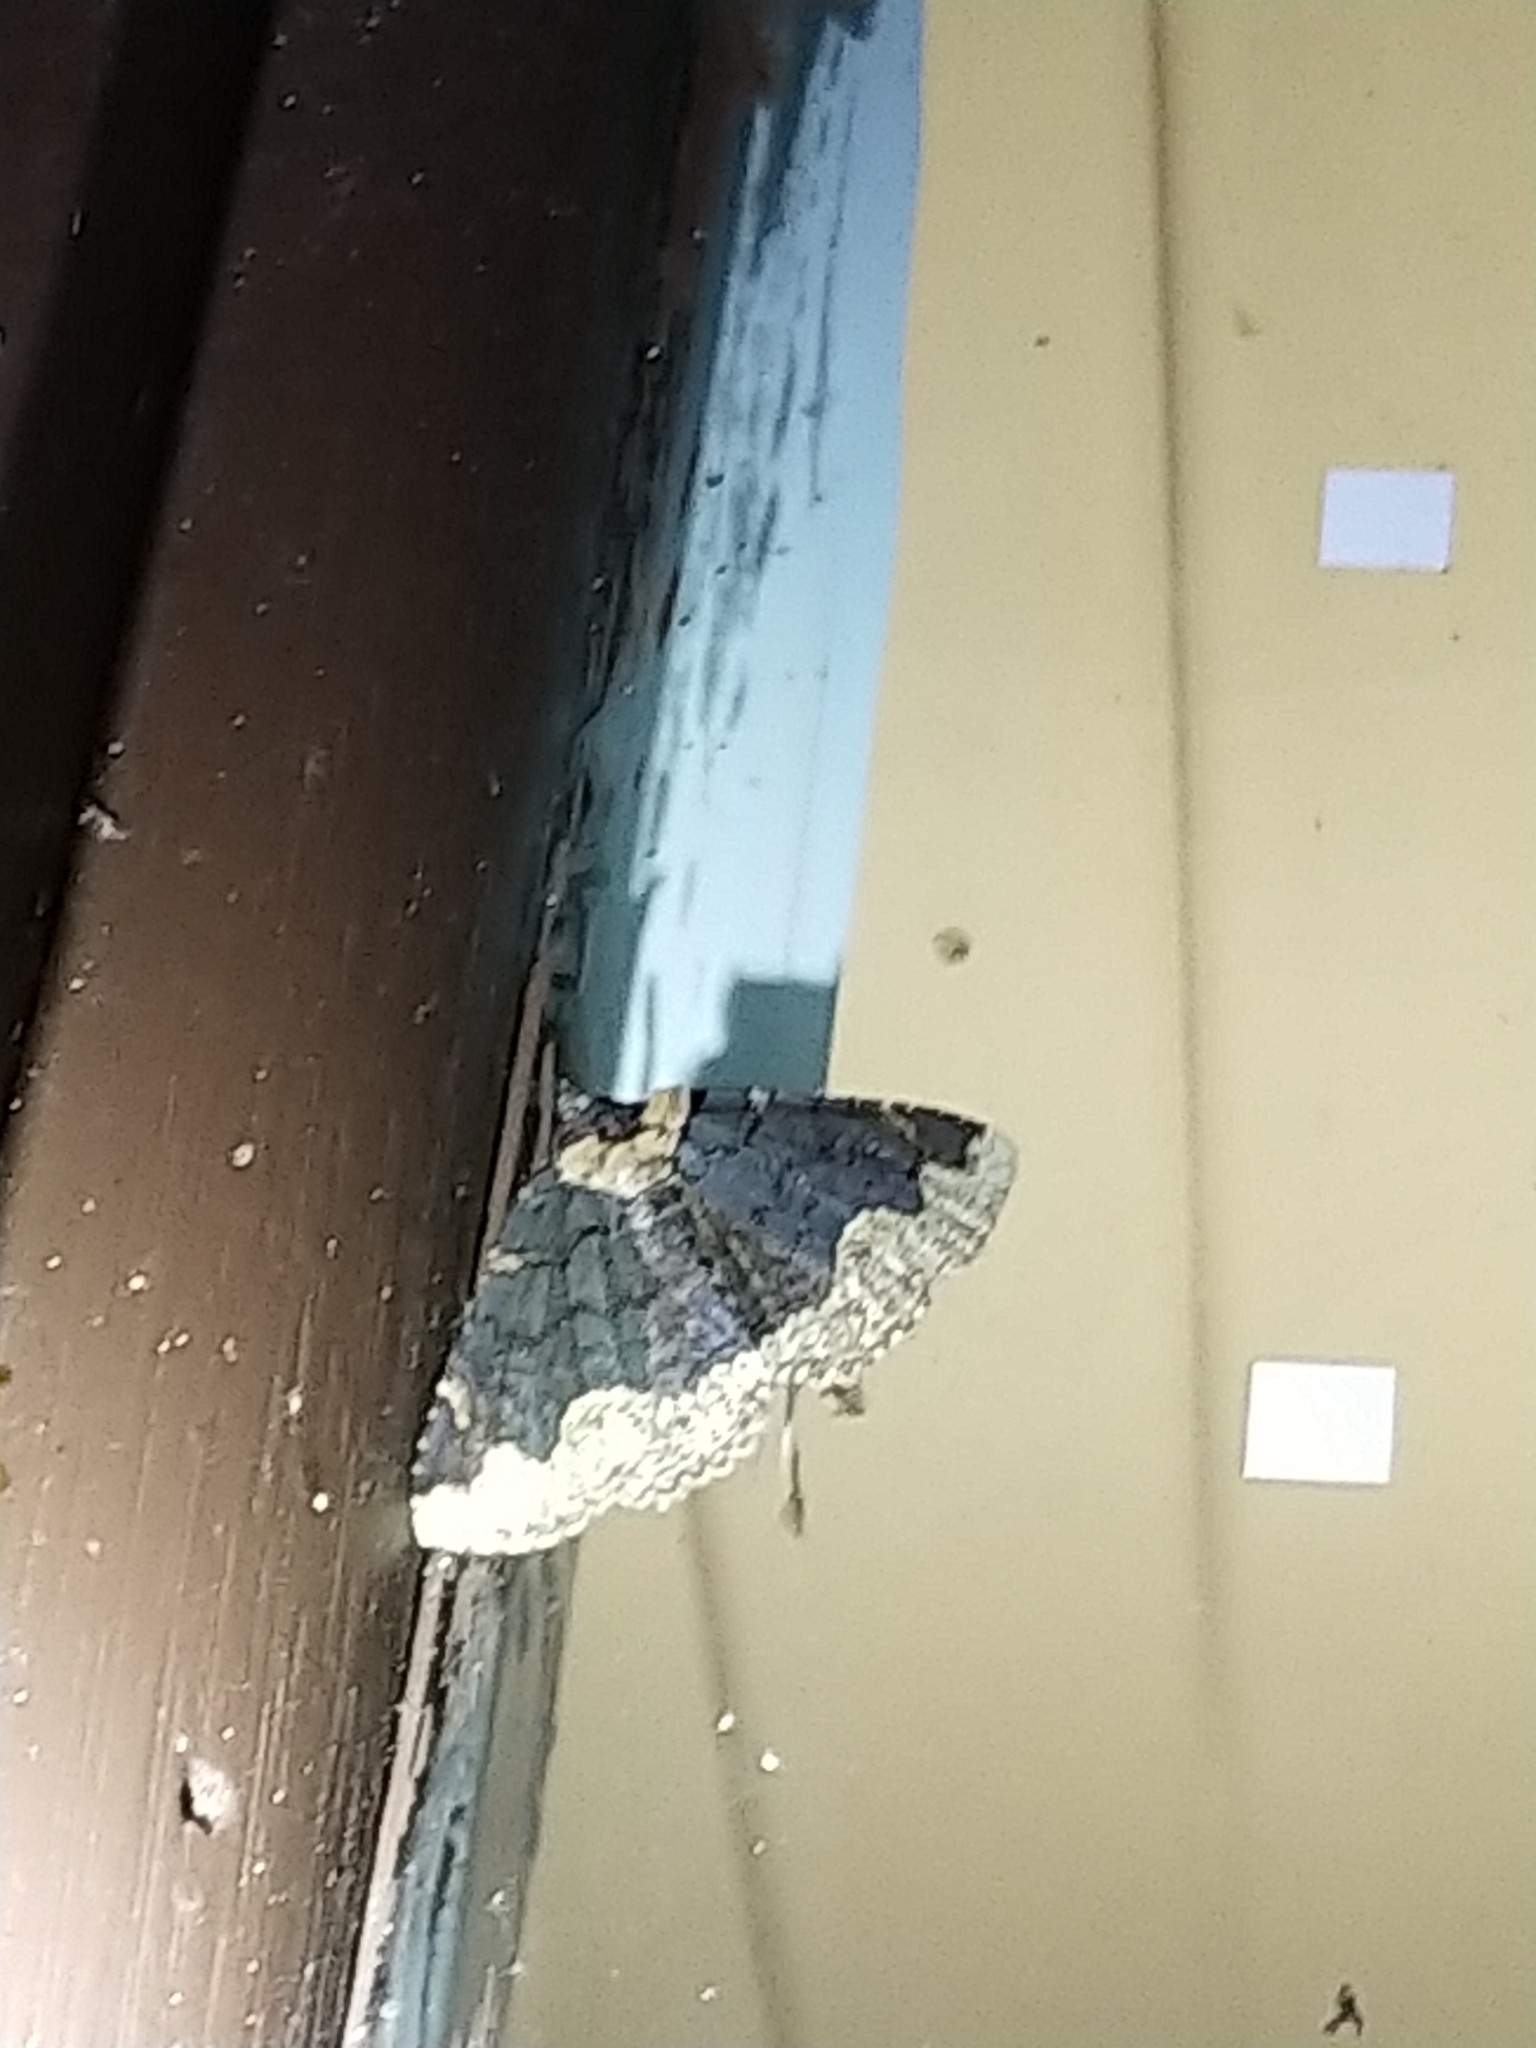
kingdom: Animalia
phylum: Arthropoda
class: Insecta
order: Lepidoptera
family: Erebidae
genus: Zale
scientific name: Zale horrida
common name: Horrid zale moth
